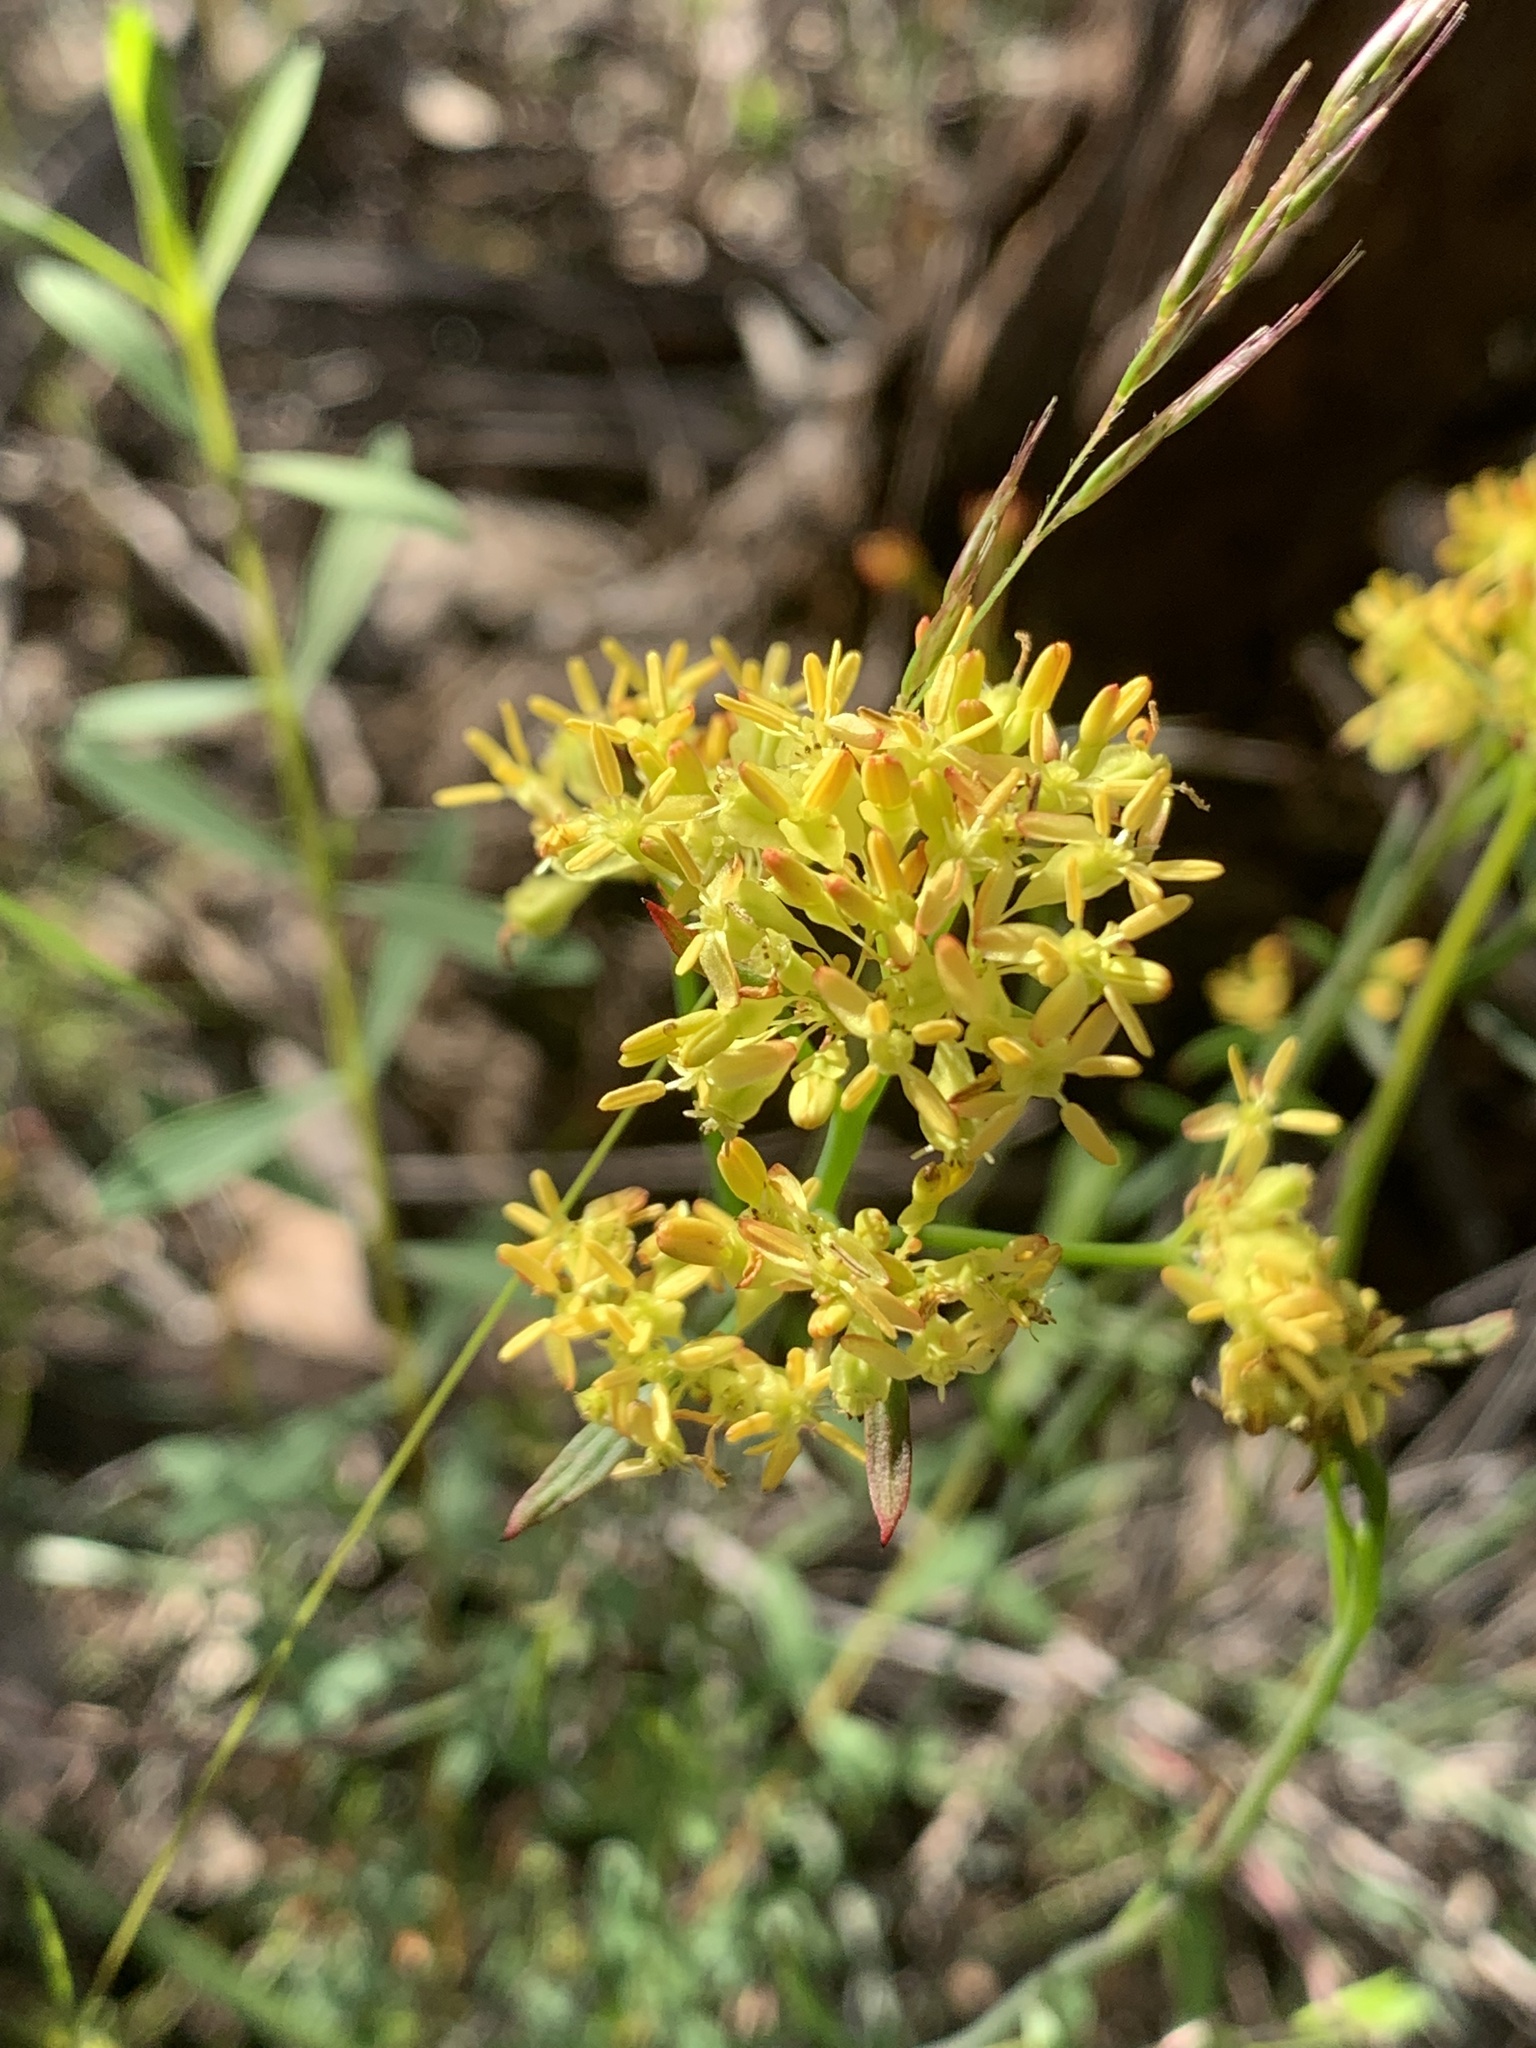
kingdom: Plantae
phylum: Tracheophyta
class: Magnoliopsida
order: Saxifragales
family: Haloragaceae
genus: Glischrocaryon
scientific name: Glischrocaryon behrii
